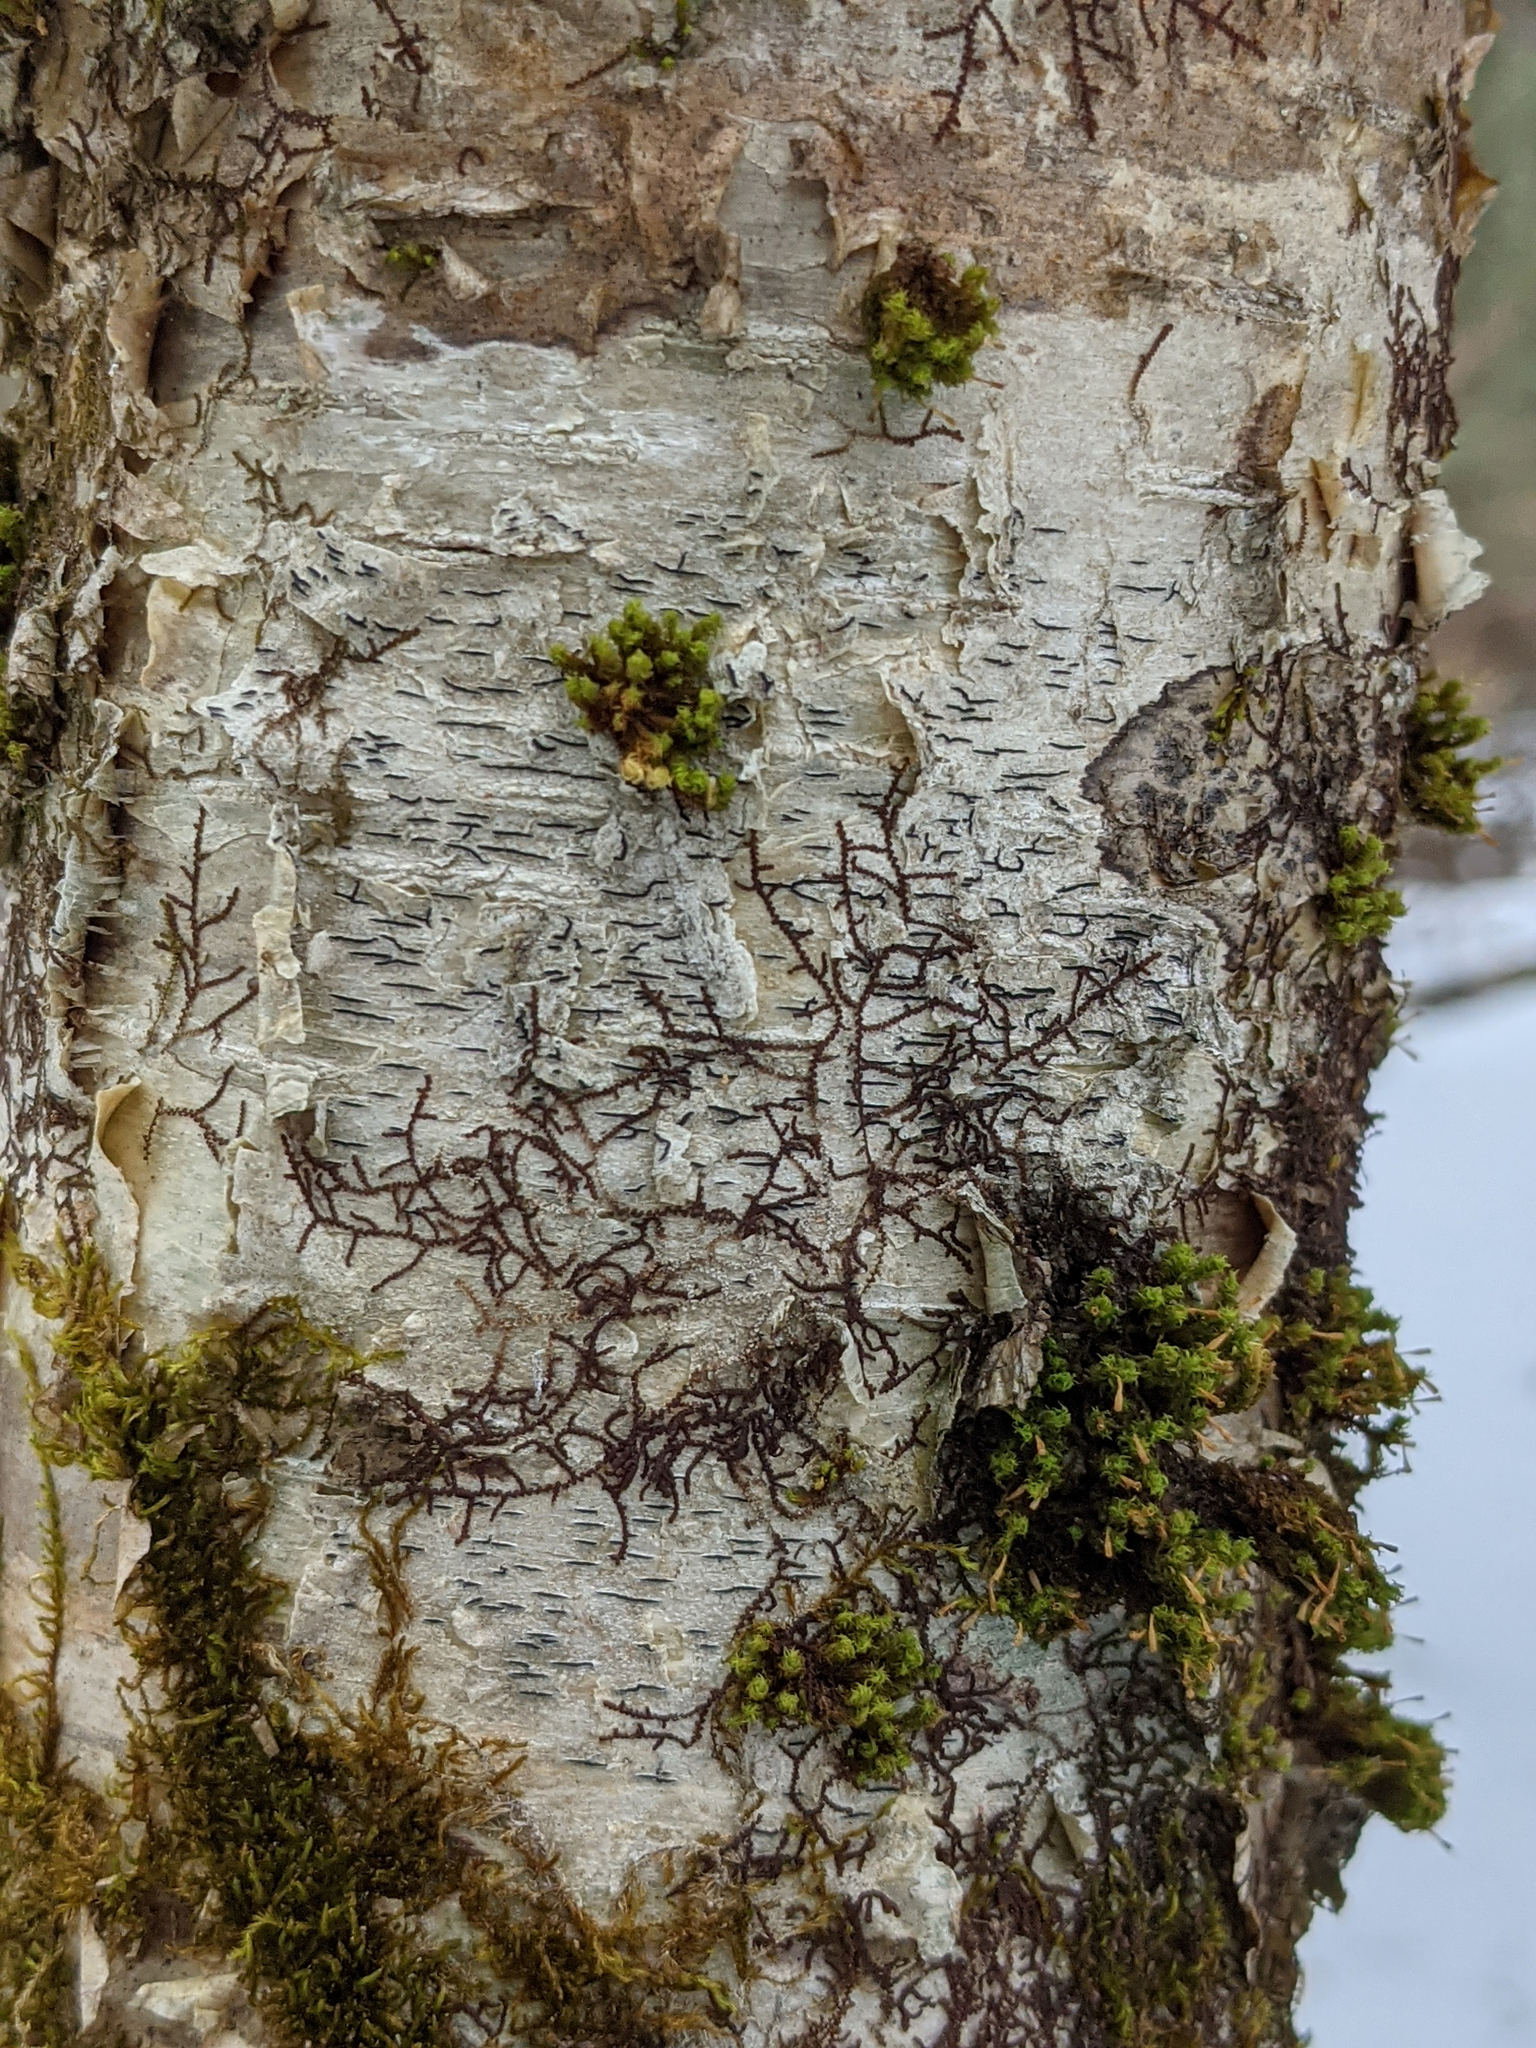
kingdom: Plantae
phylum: Bryophyta
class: Bryopsida
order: Orthotrichales
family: Orthotrichaceae
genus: Ulota
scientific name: Ulota crispa
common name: Crisped pincushion moss
